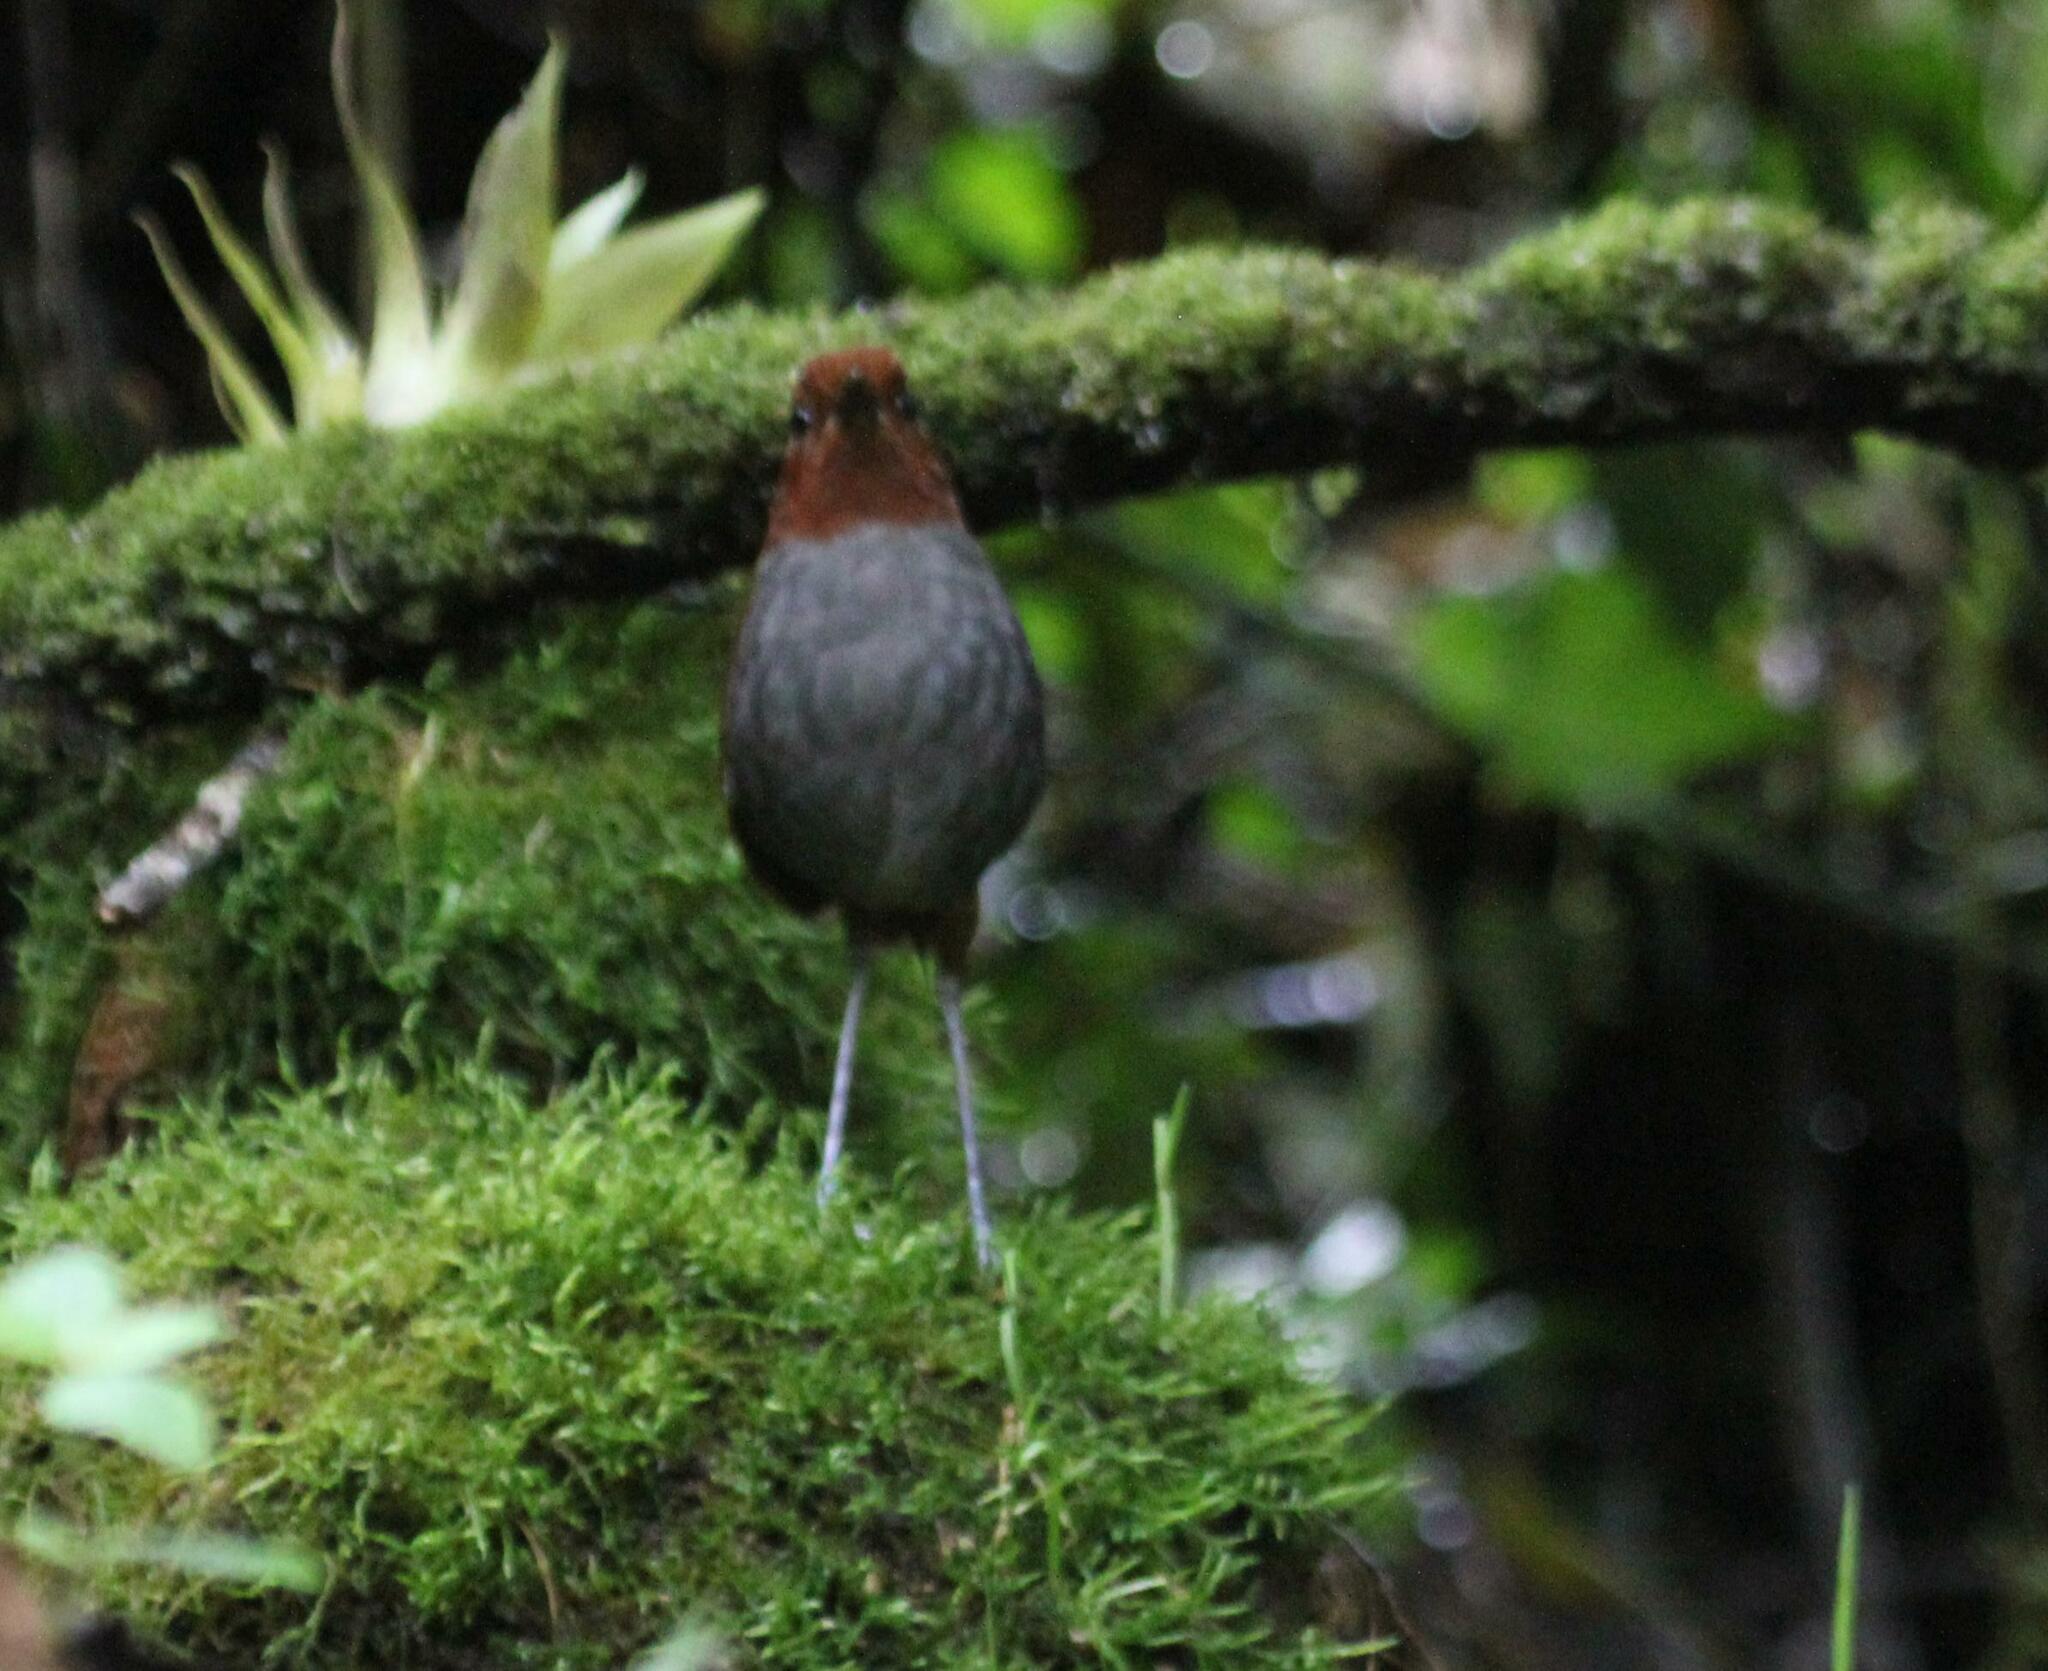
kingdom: Animalia
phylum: Chordata
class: Aves
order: Passeriformes
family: Grallariidae
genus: Grallaria
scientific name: Grallaria rufocinerea
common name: Bicolored antpitta
